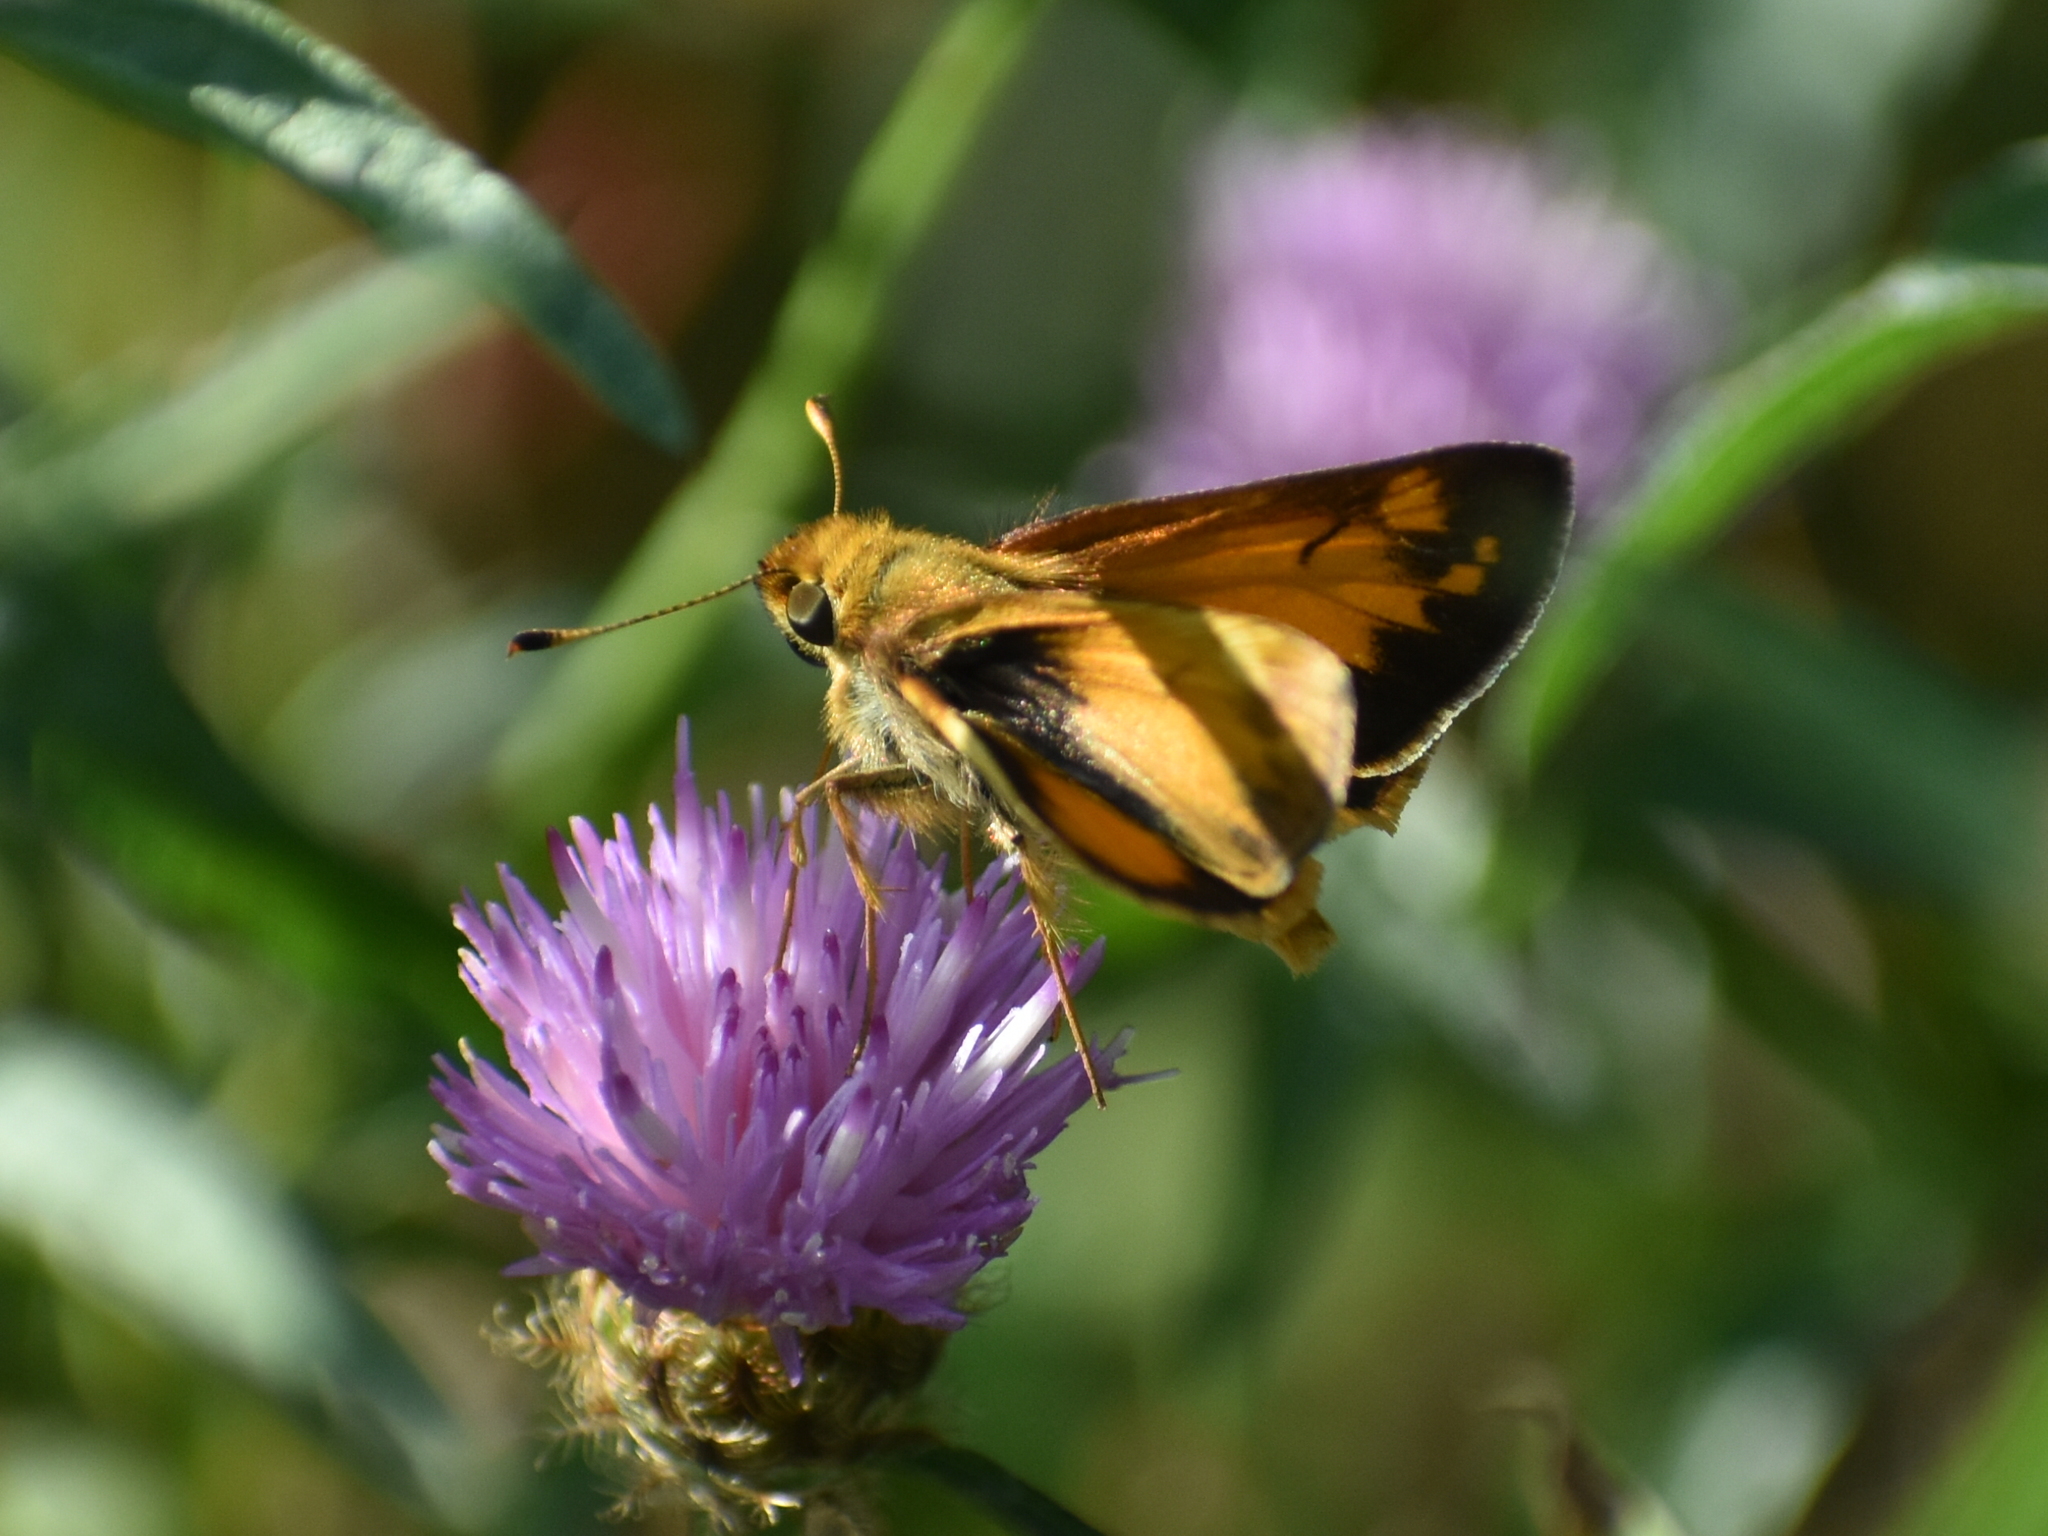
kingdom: Animalia
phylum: Arthropoda
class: Insecta
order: Lepidoptera
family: Hesperiidae
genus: Lon
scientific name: Lon zabulon
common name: Zabulon skipper
